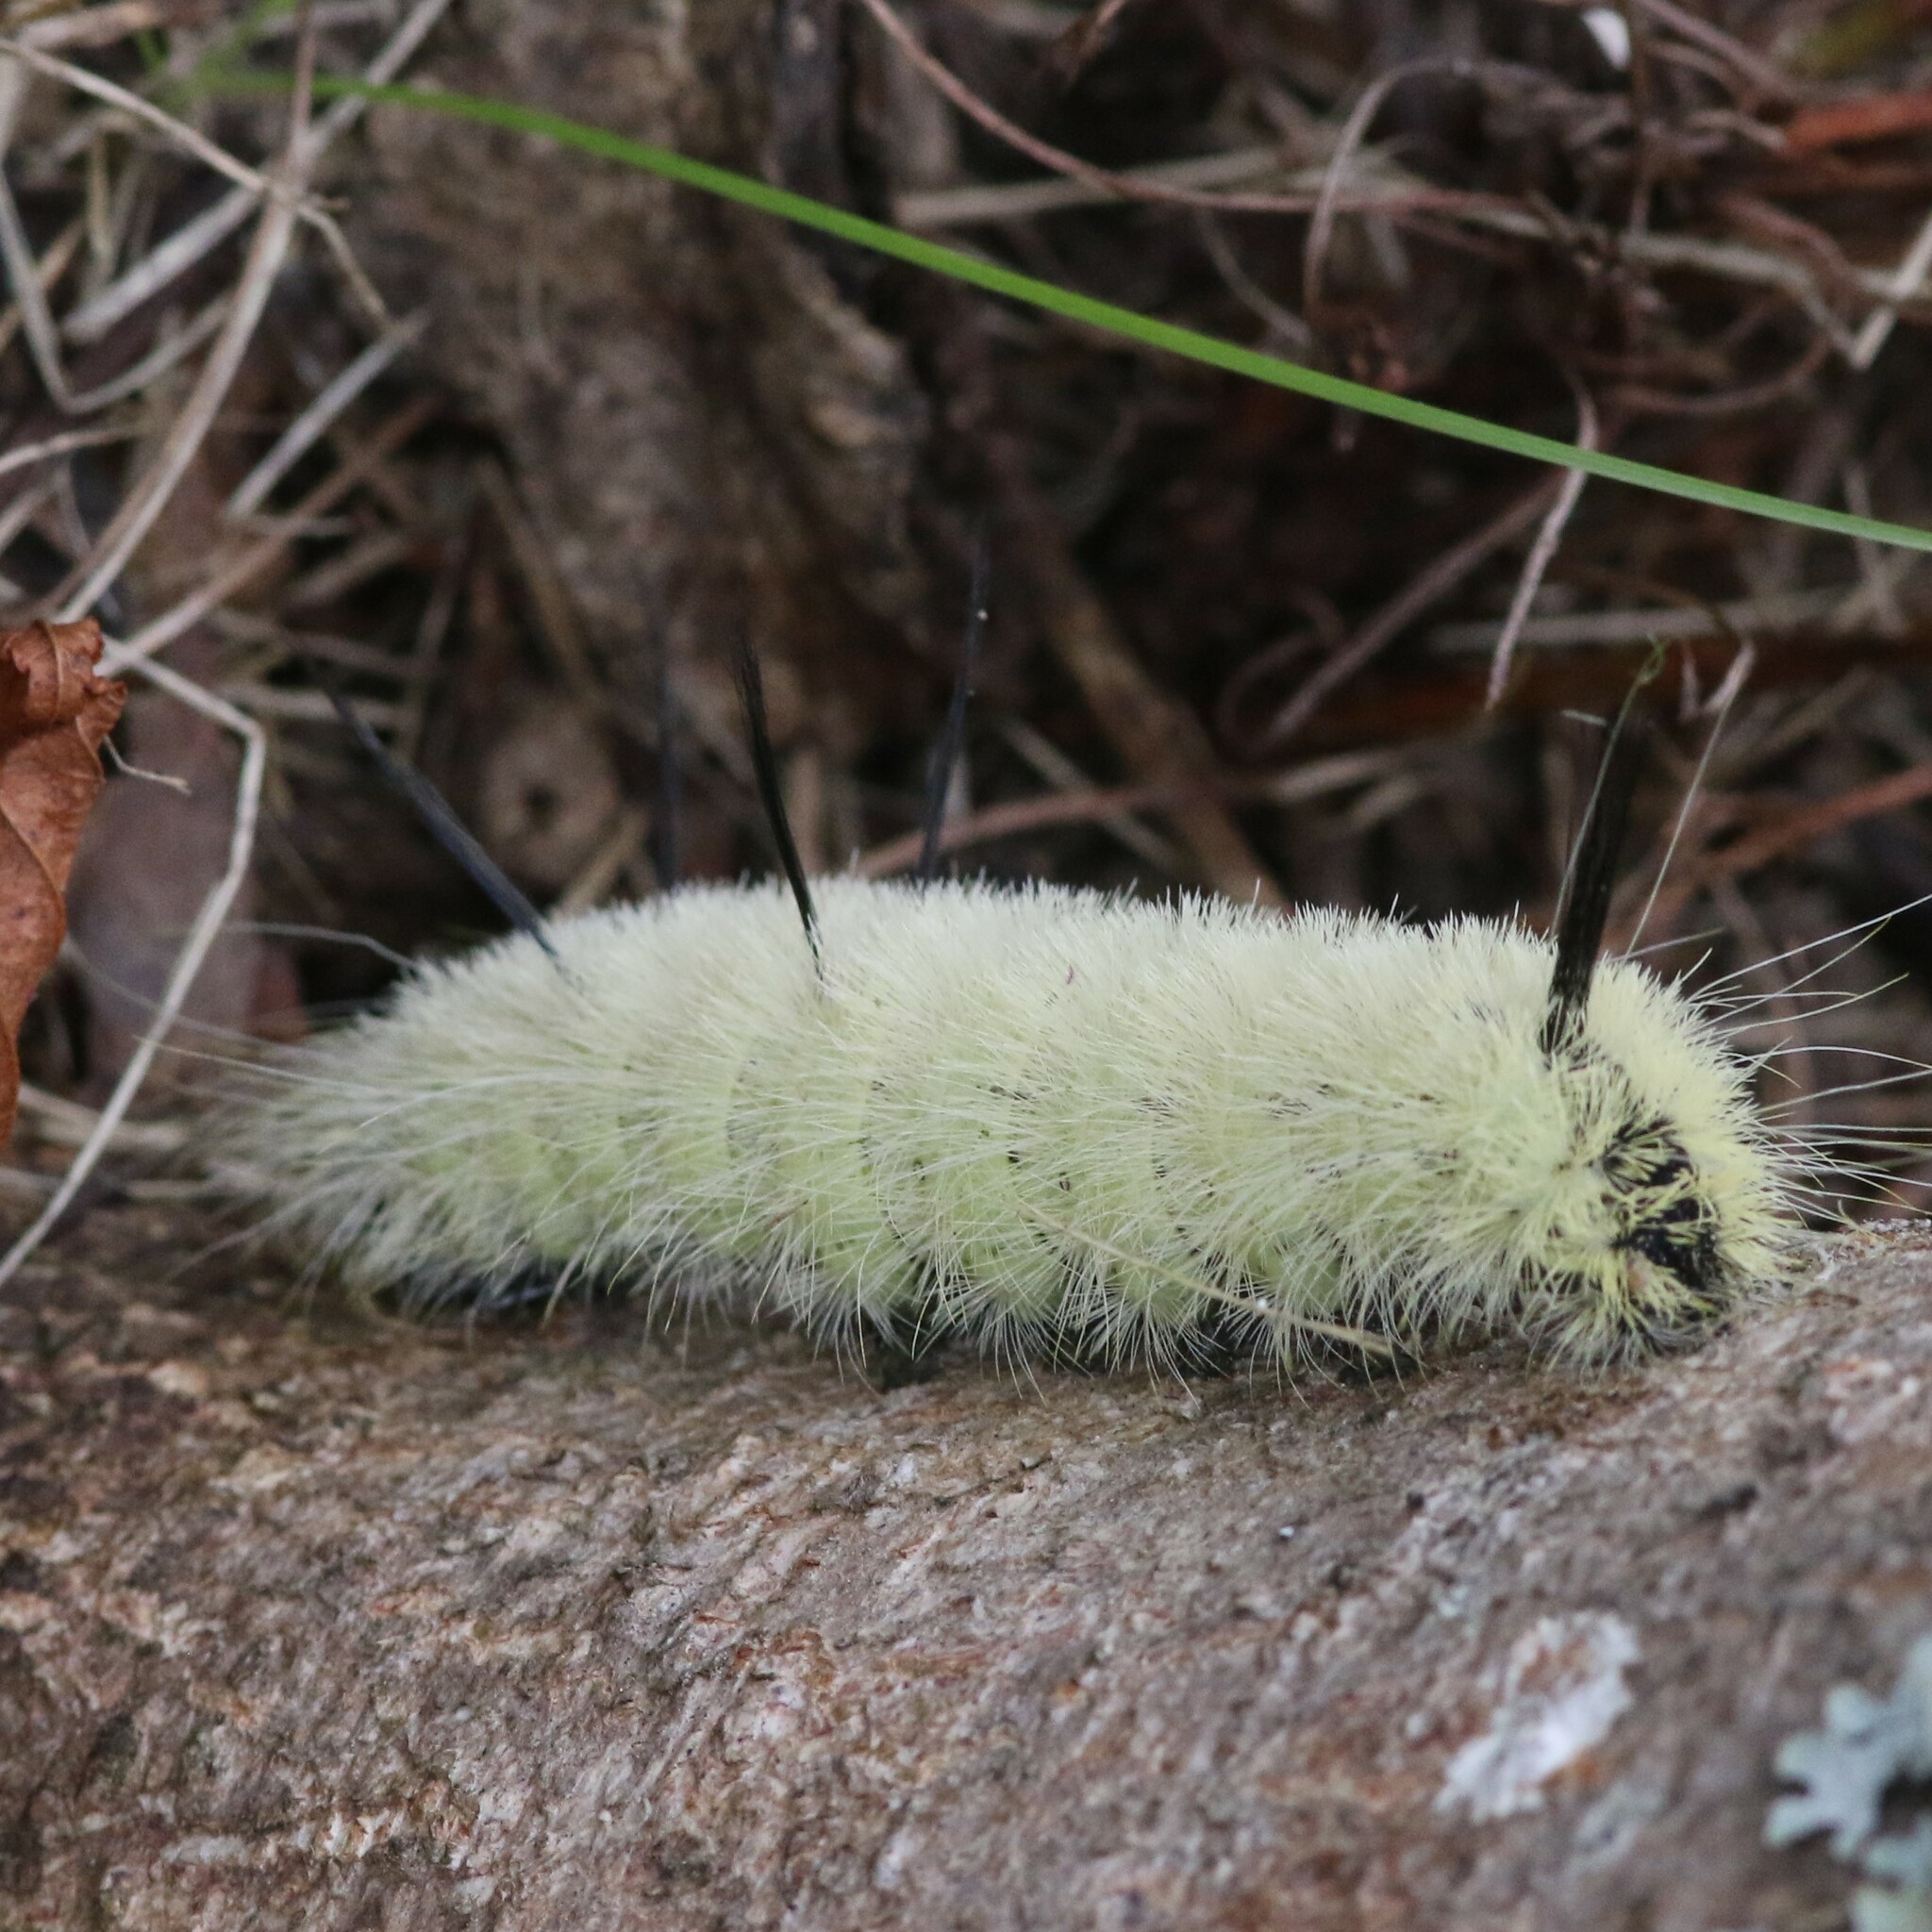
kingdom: Animalia
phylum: Arthropoda
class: Insecta
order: Lepidoptera
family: Noctuidae
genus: Acronicta
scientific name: Acronicta americana
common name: American dagger
